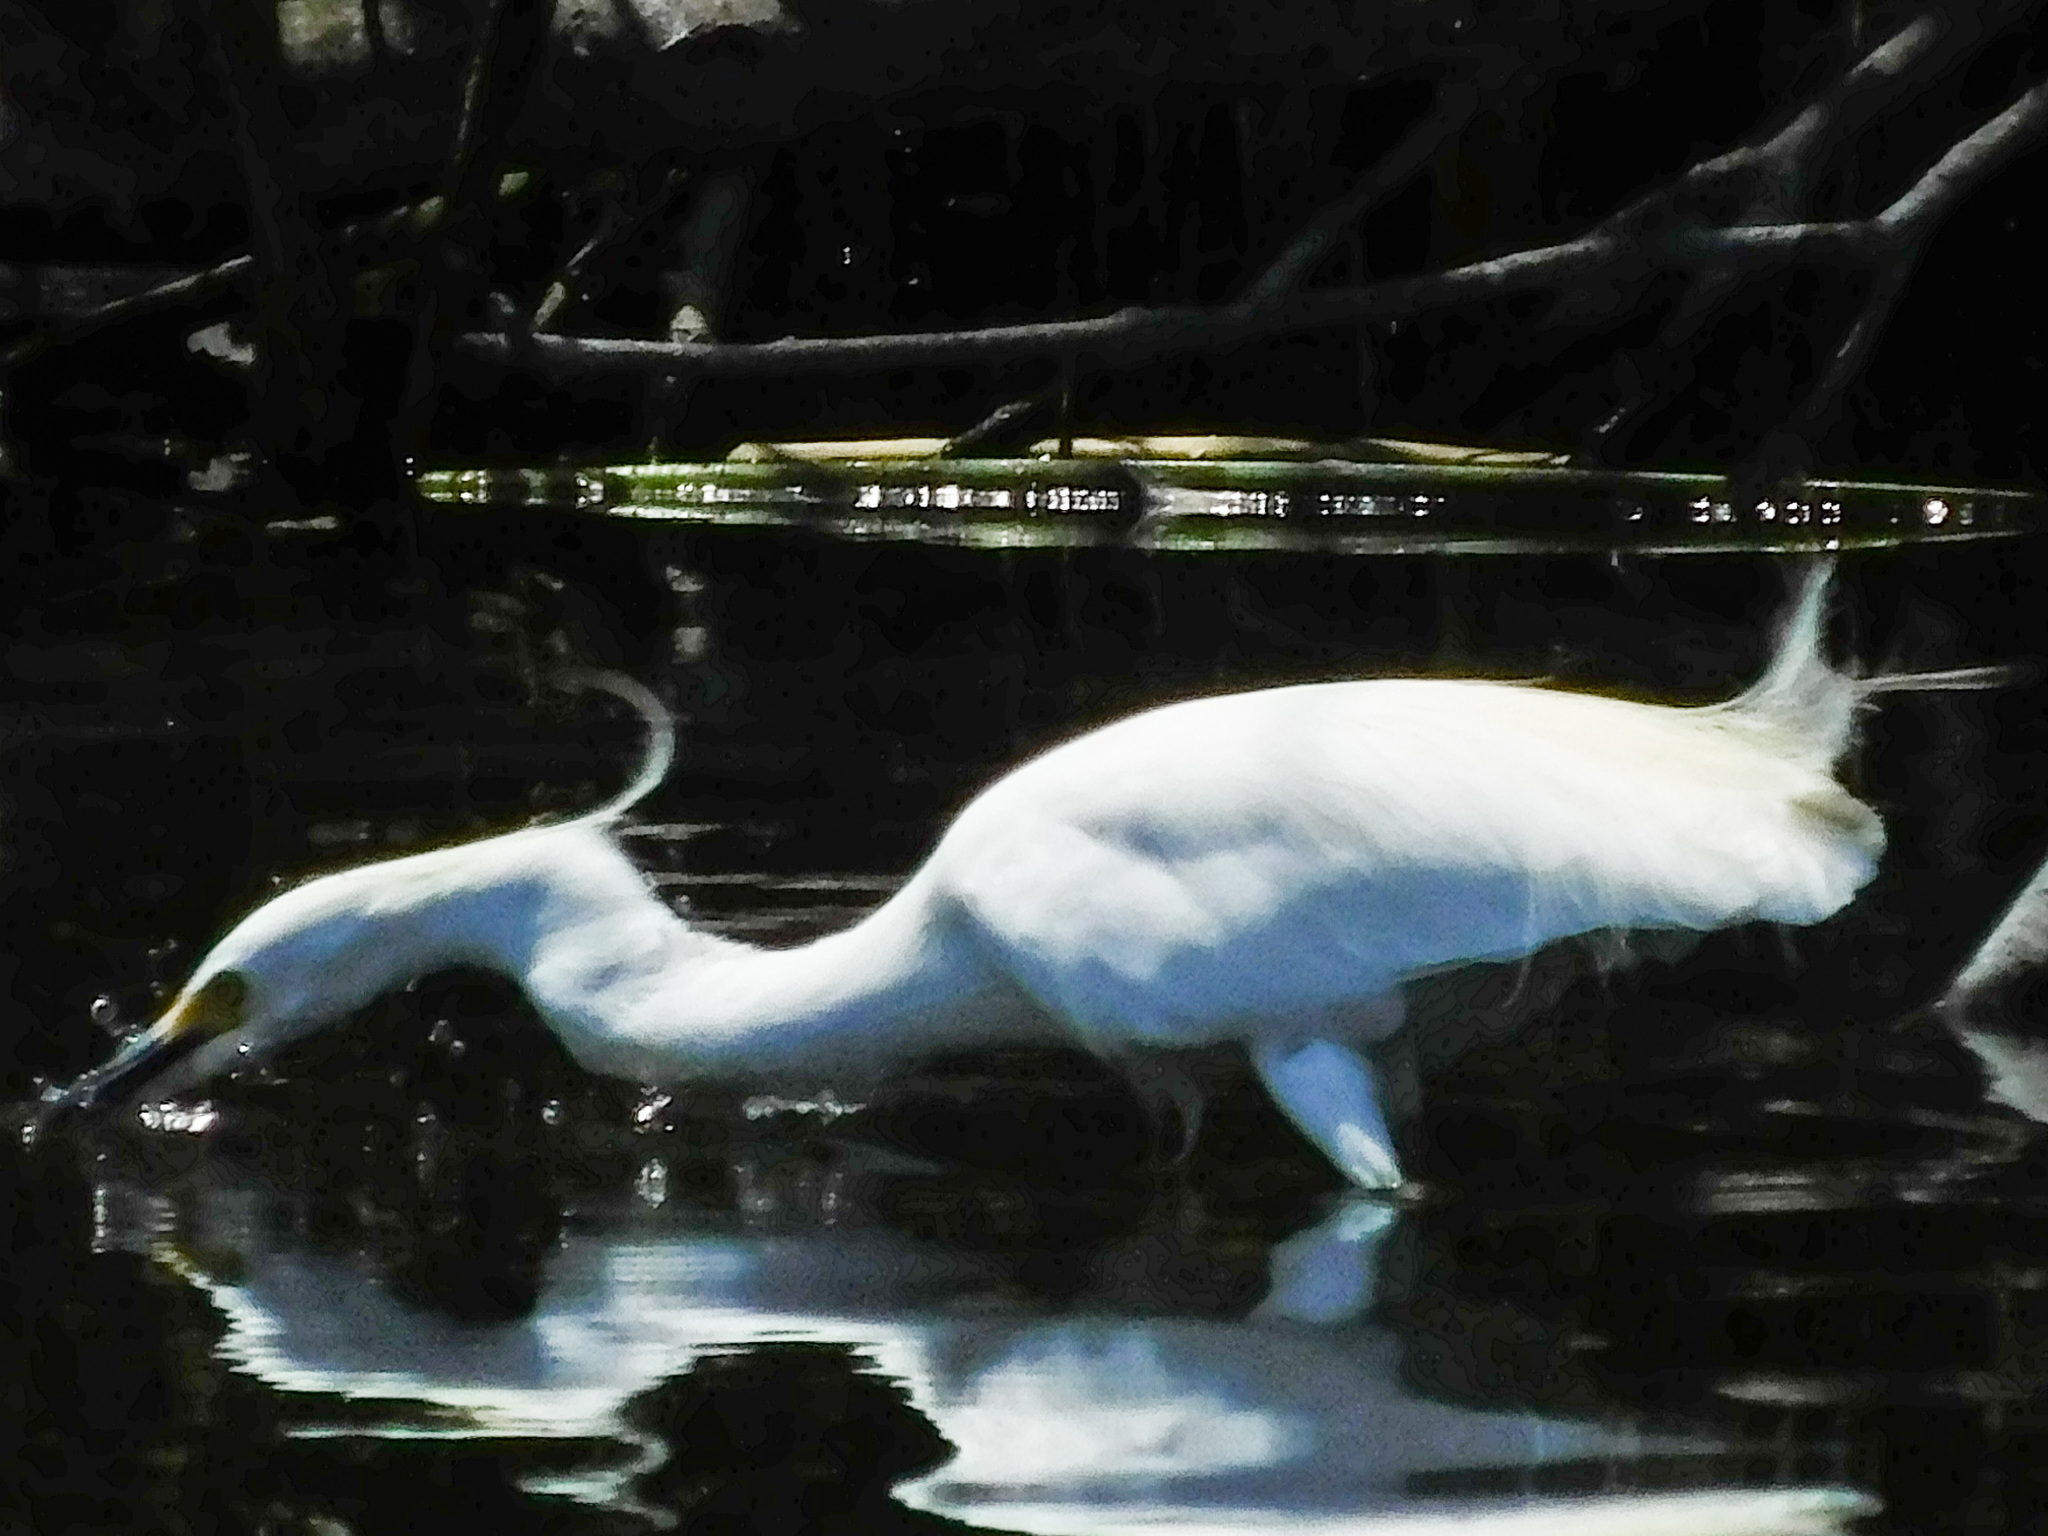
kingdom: Animalia
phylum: Chordata
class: Aves
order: Pelecaniformes
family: Ardeidae
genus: Egretta
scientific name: Egretta thula
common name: Snowy egret
